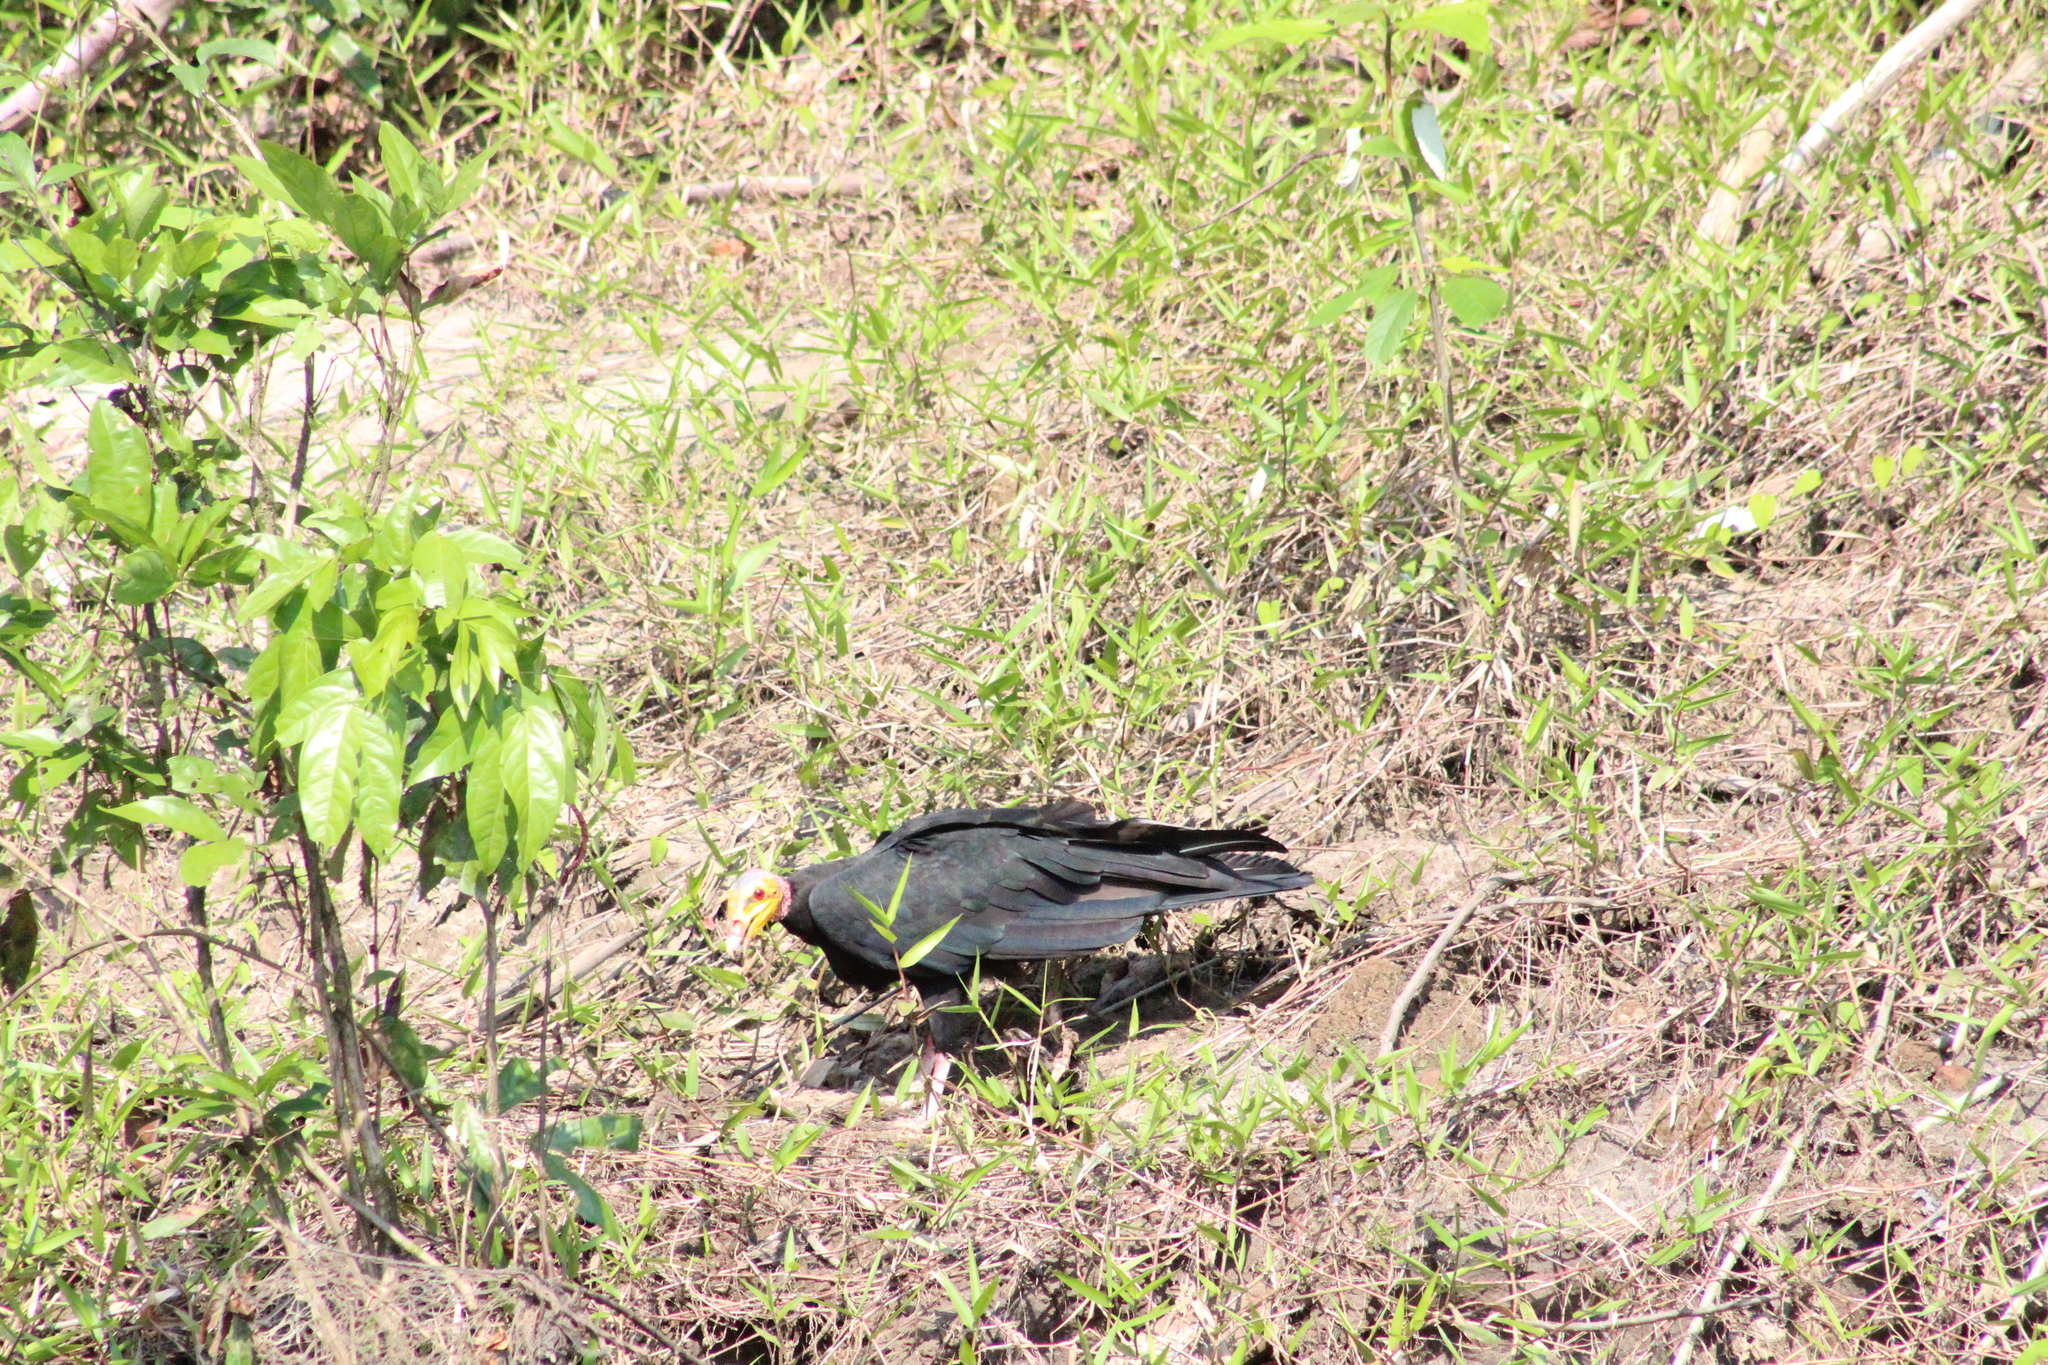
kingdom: Animalia
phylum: Chordata
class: Aves
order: Accipitriformes
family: Cathartidae
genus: Cathartes
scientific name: Cathartes melambrotus
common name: Greater yellow-headed vulture
